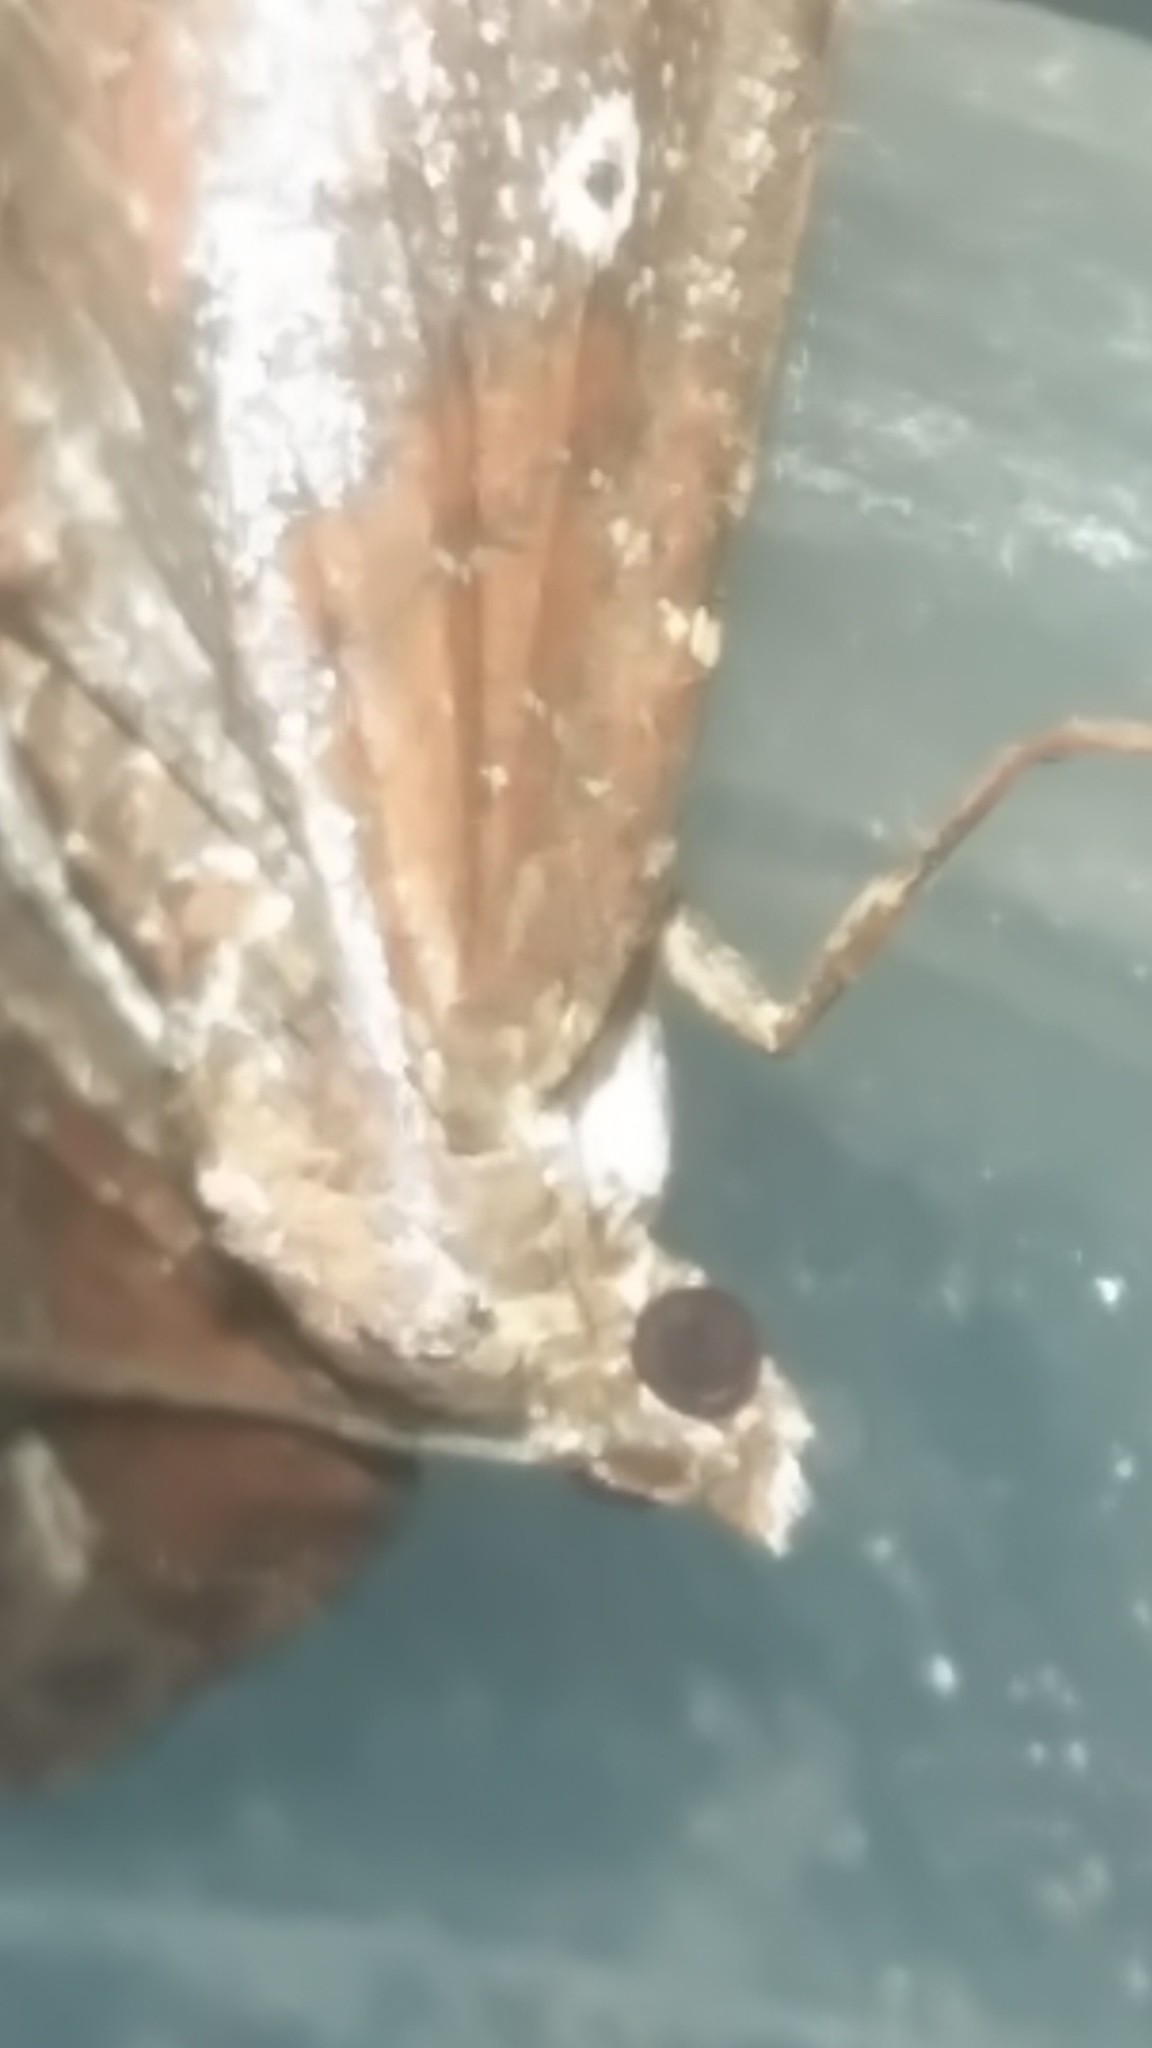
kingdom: Animalia
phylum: Arthropoda
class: Insecta
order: Lepidoptera
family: Geometridae
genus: Orthonama
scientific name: Orthonama obstipata
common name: The gem
